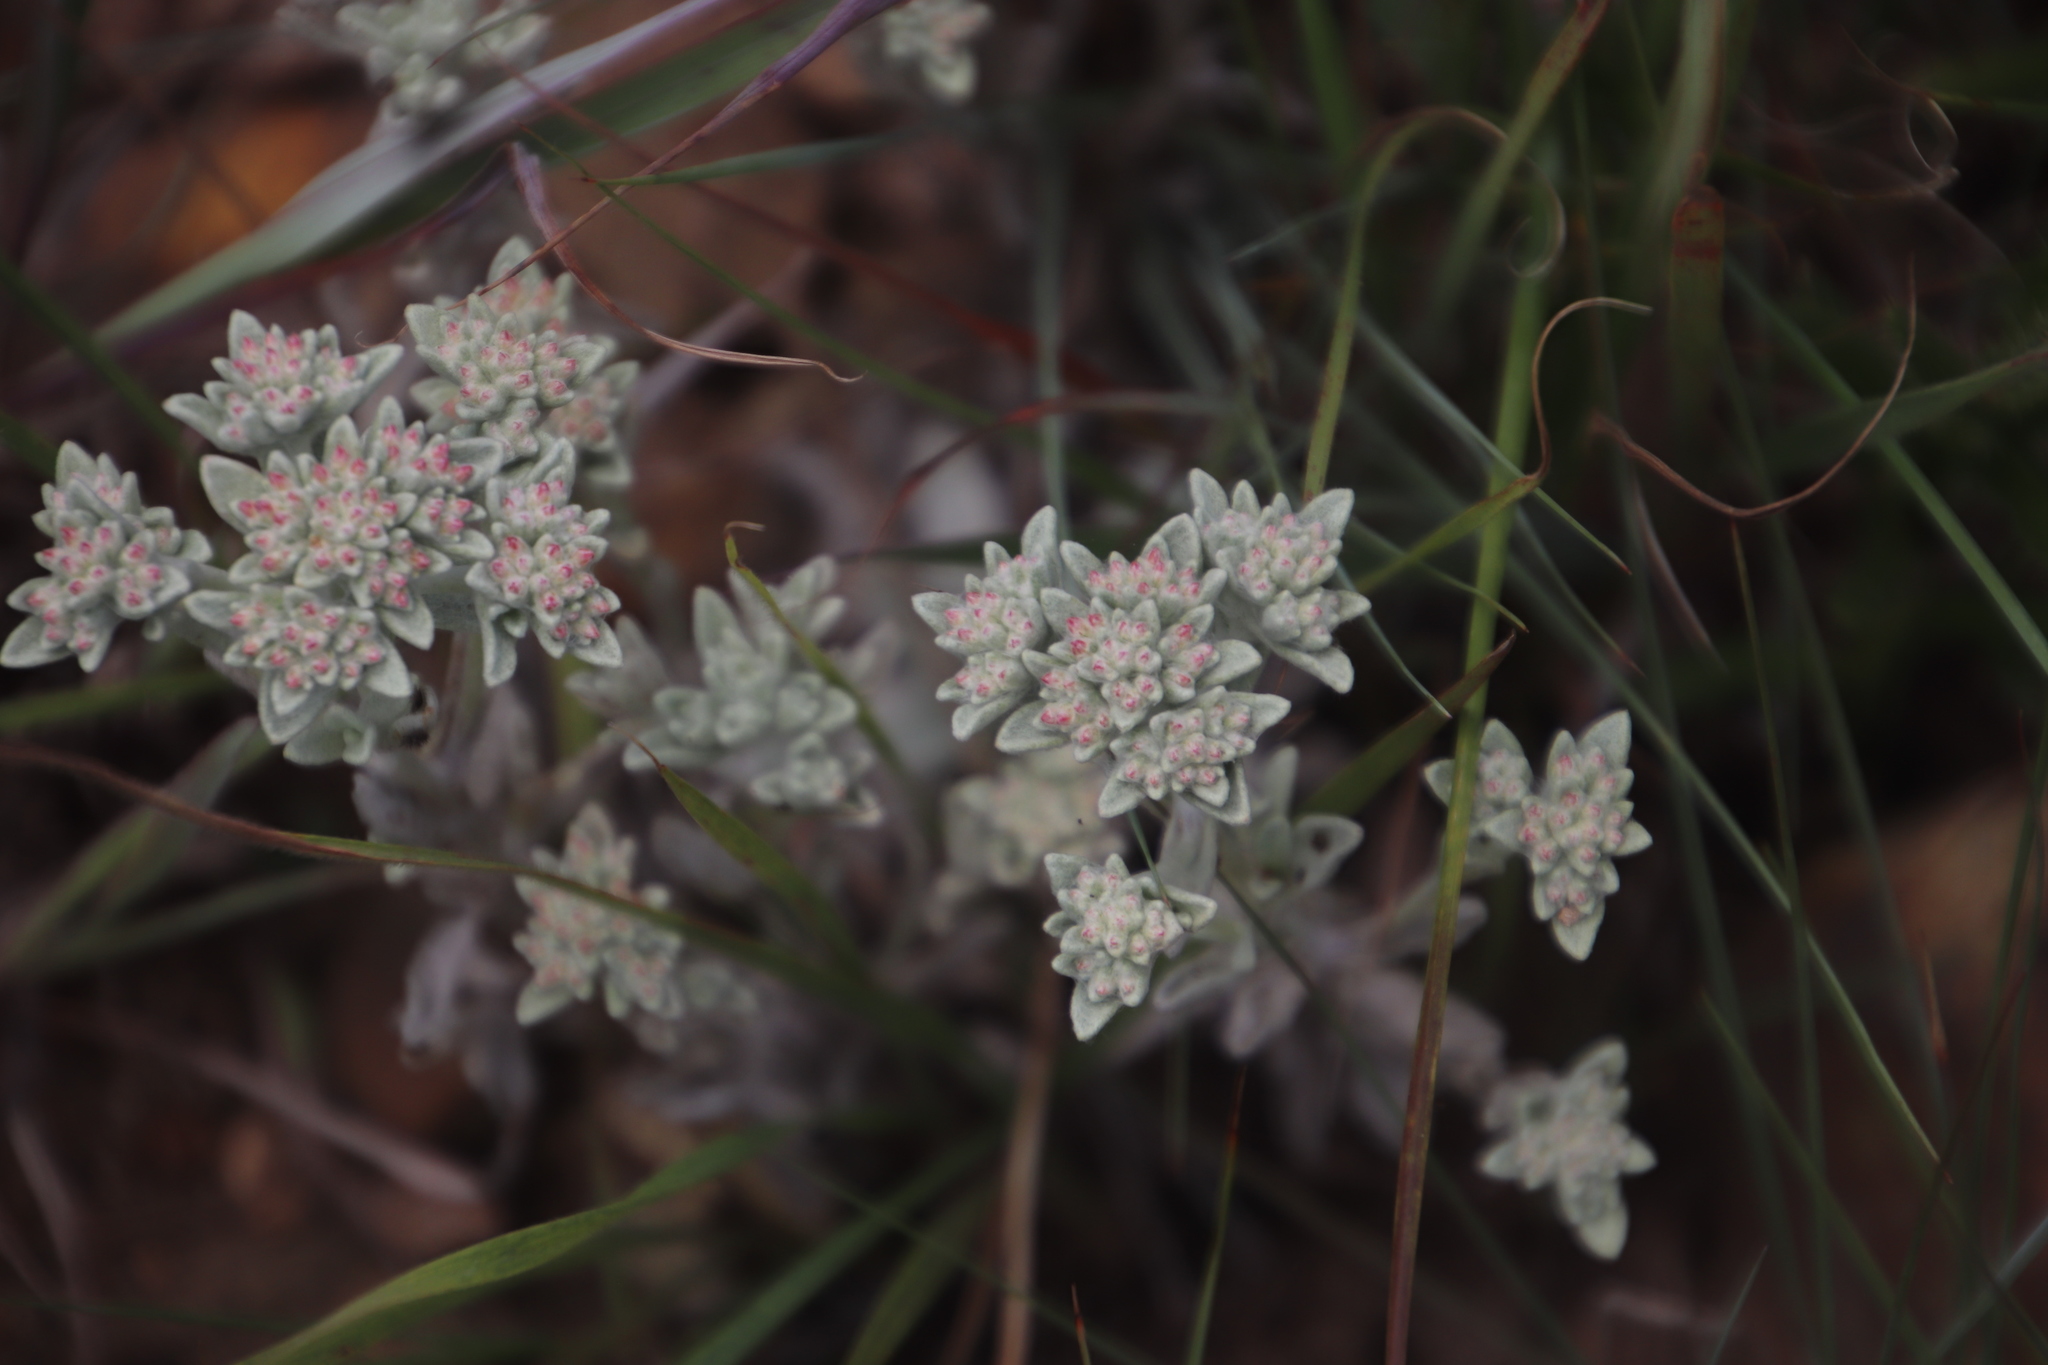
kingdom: Plantae
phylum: Tracheophyta
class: Magnoliopsida
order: Asterales
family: Asteraceae
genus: Helichrysum
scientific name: Helichrysum spiralepis
